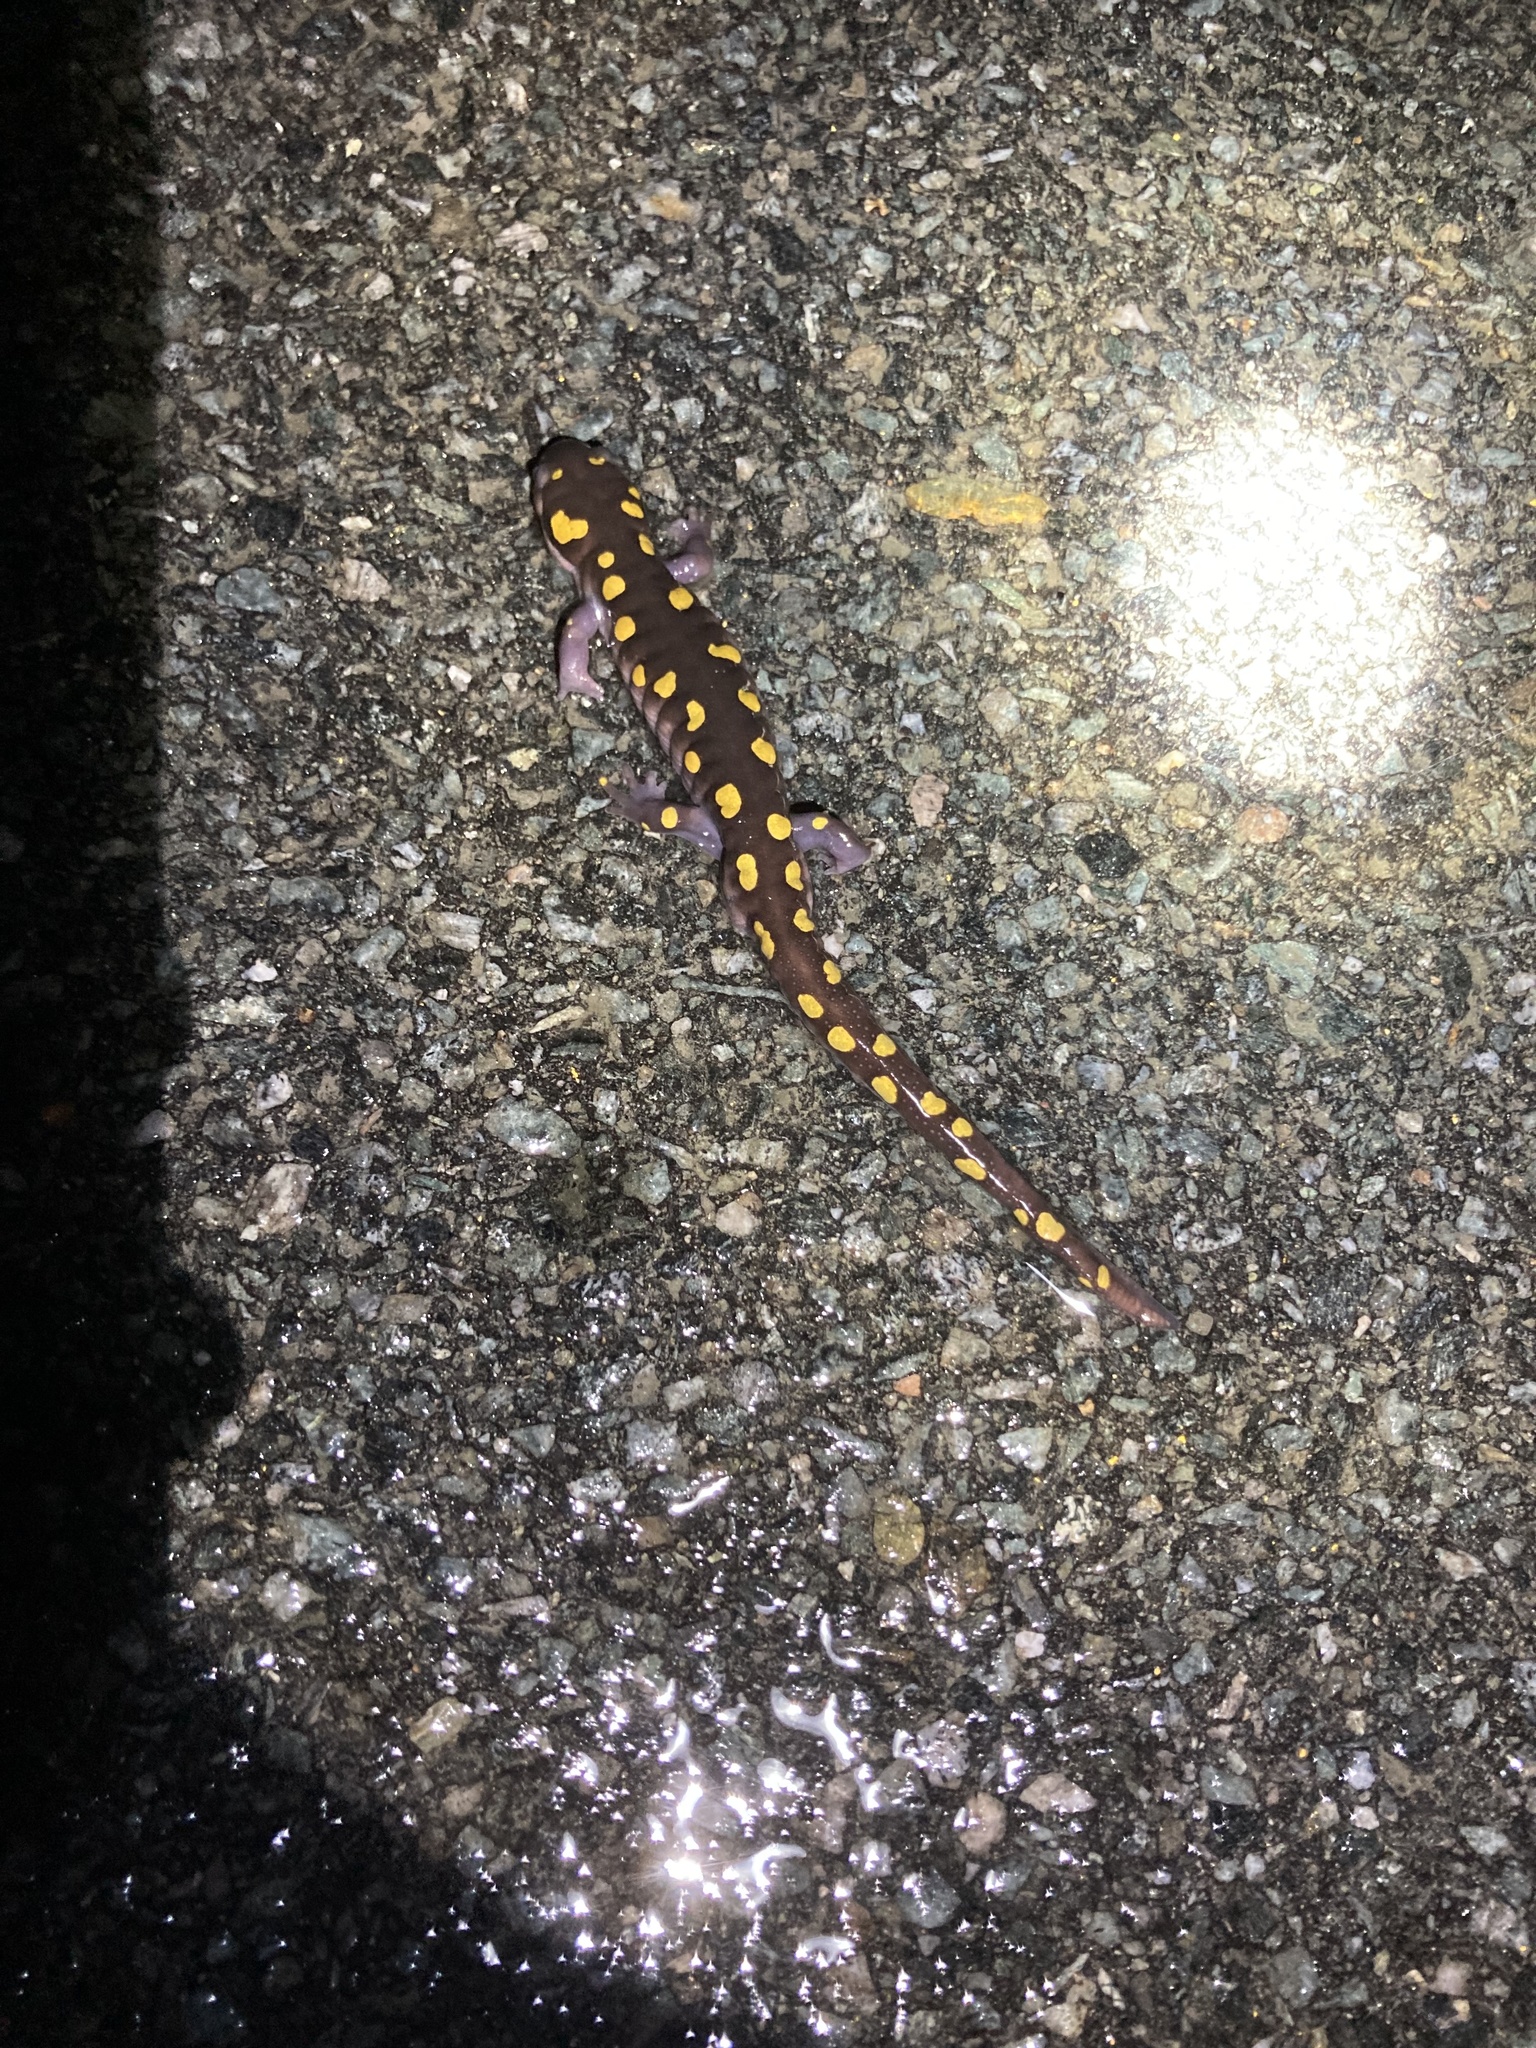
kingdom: Animalia
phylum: Chordata
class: Amphibia
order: Caudata
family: Ambystomatidae
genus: Ambystoma
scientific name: Ambystoma maculatum
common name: Spotted salamander
